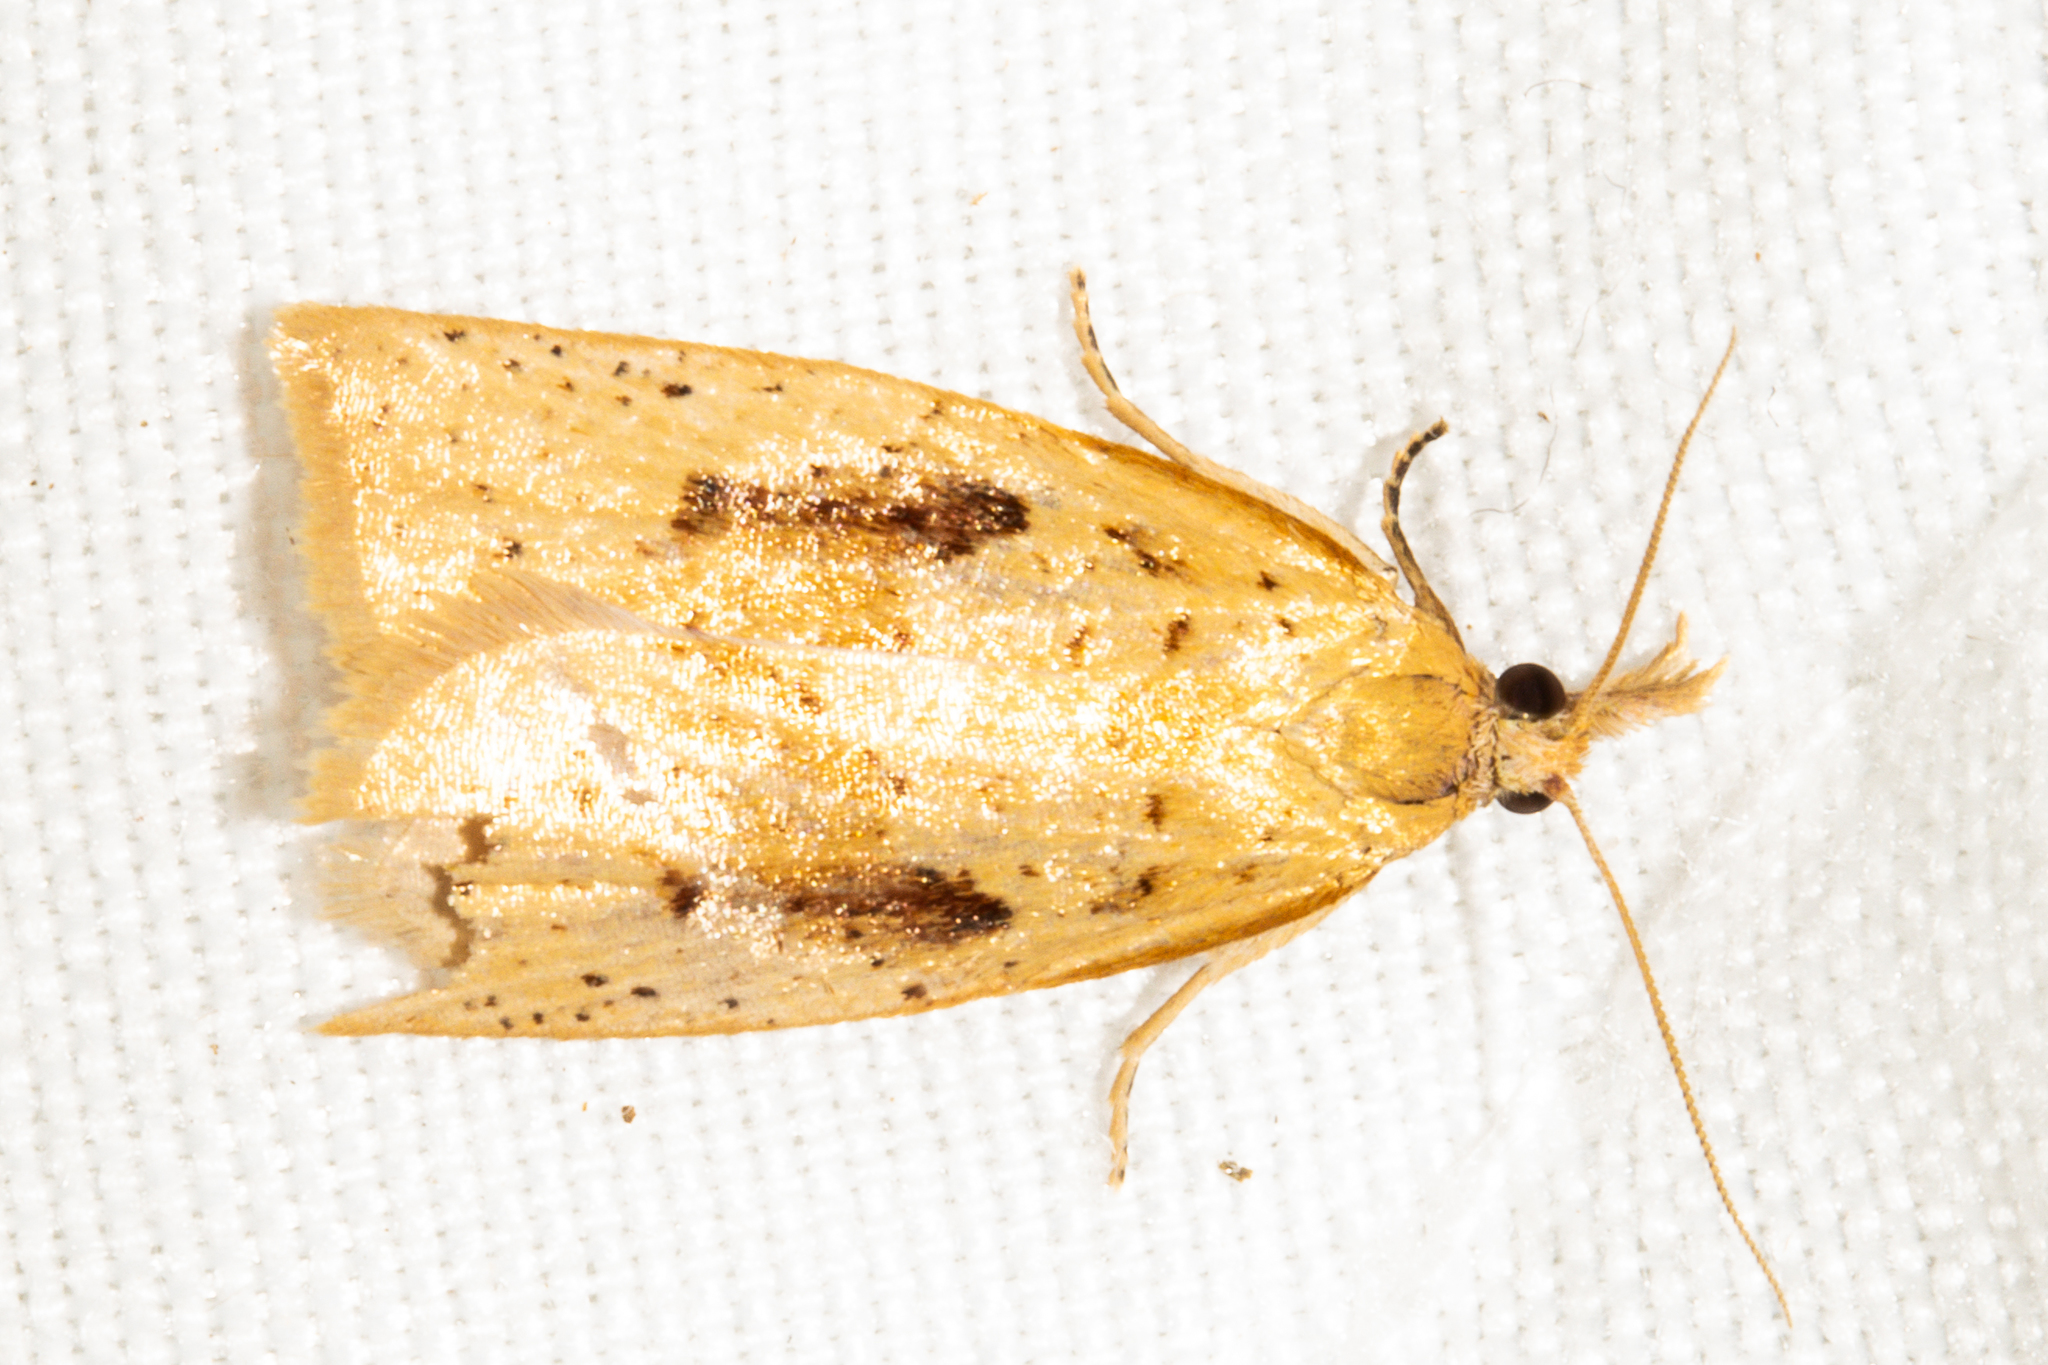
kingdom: Animalia
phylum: Arthropoda
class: Insecta
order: Lepidoptera
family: Tortricidae
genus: Apoctena
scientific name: Apoctena conditana
